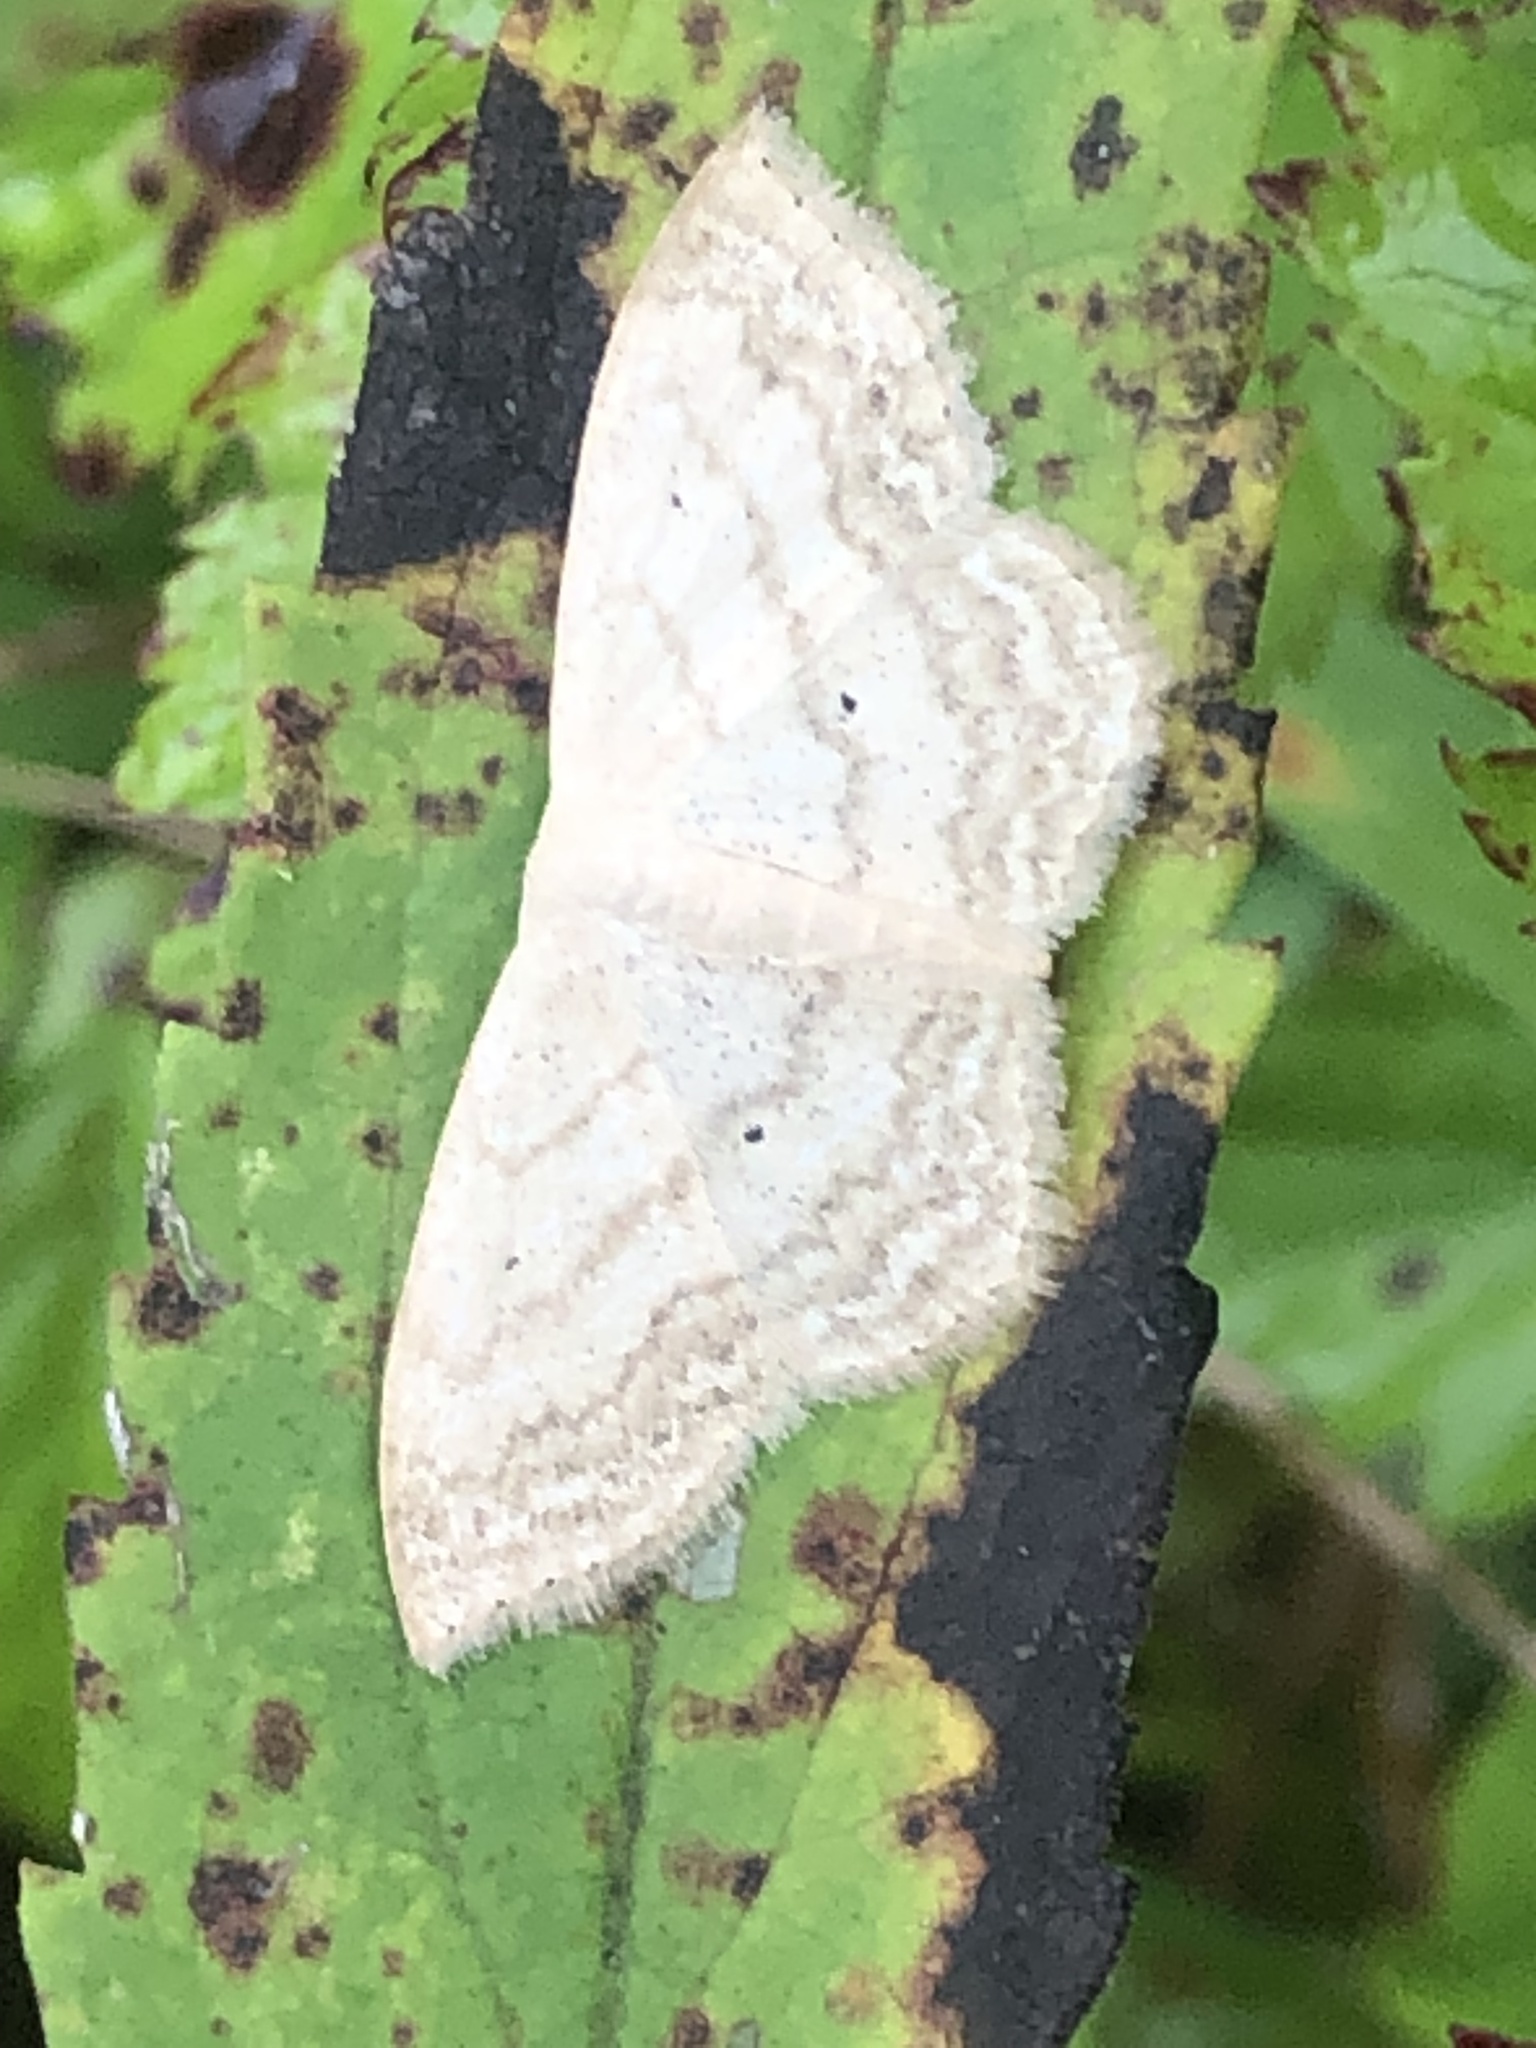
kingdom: Animalia
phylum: Arthropoda
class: Insecta
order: Lepidoptera
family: Geometridae
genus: Scopula
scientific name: Scopula limboundata
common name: Large lace border
